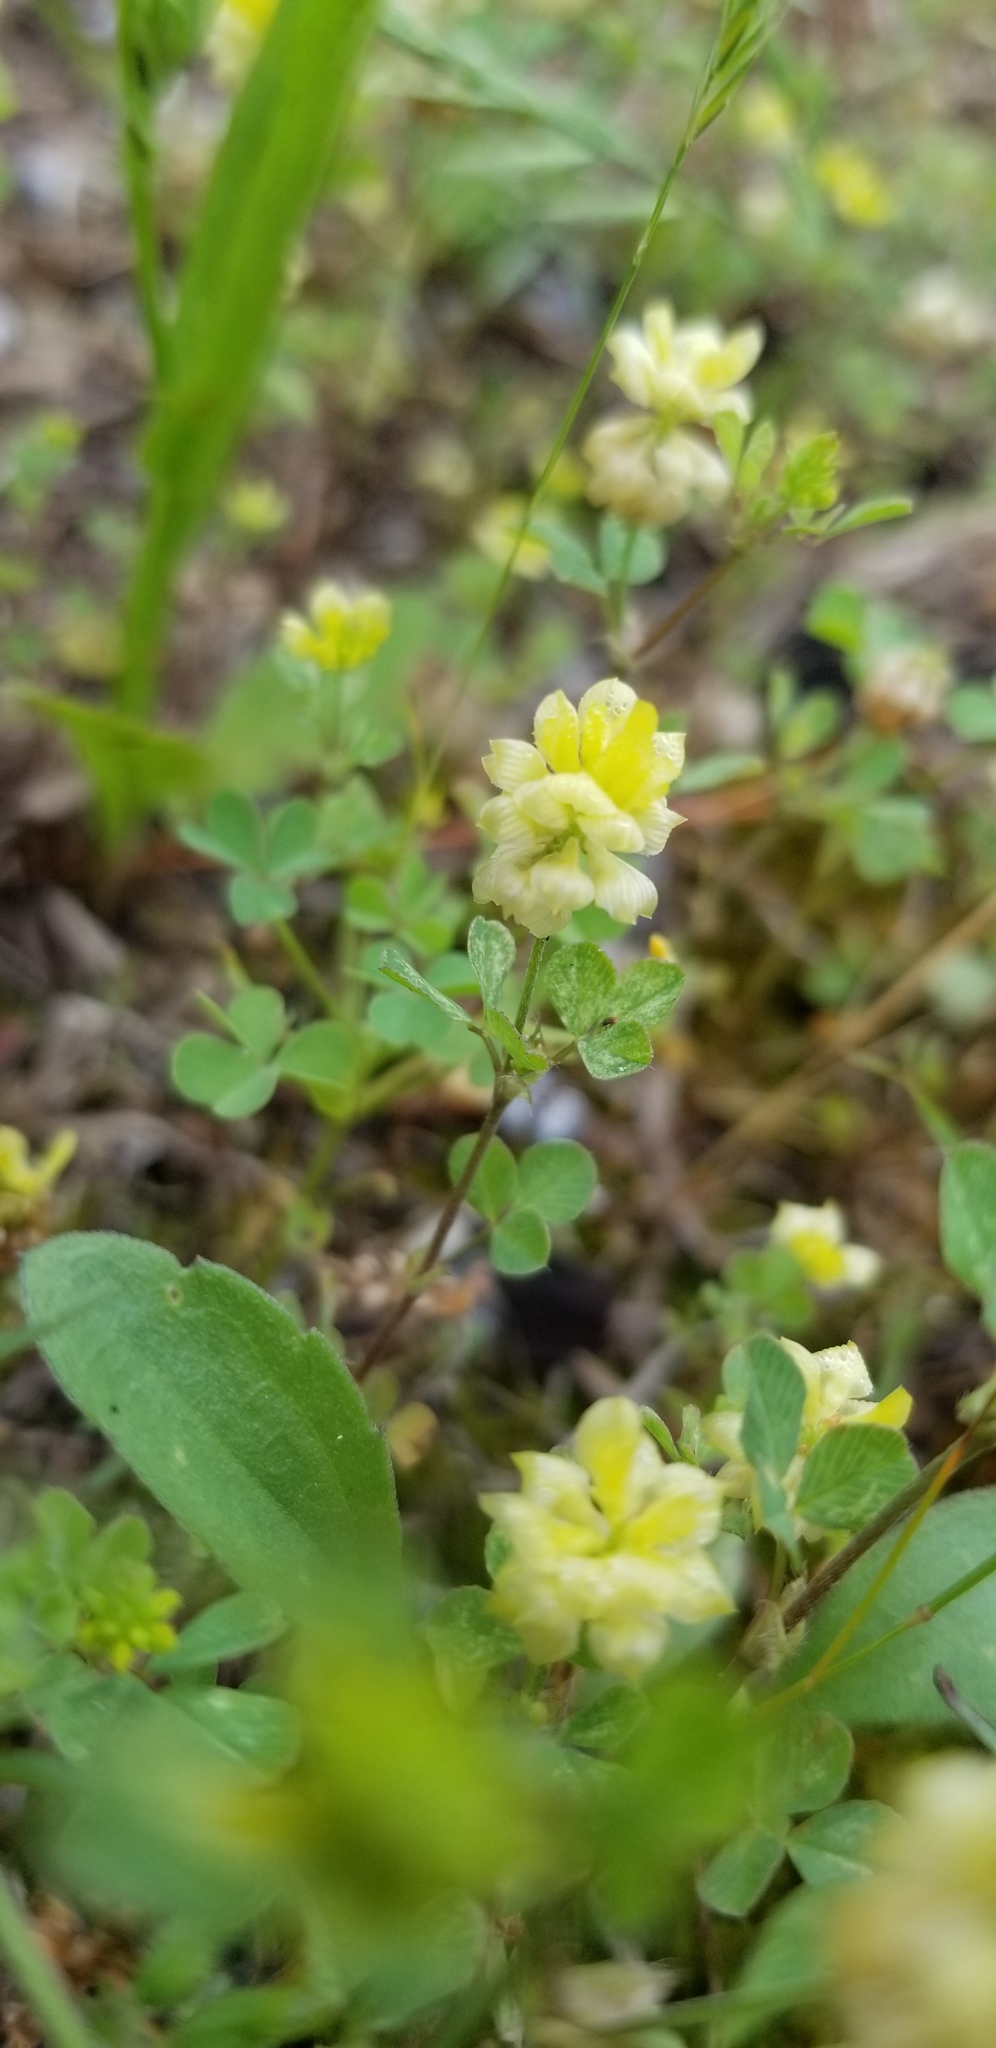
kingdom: Plantae
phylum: Tracheophyta
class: Magnoliopsida
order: Fabales
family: Fabaceae
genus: Trifolium
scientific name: Trifolium campestre
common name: Field clover
